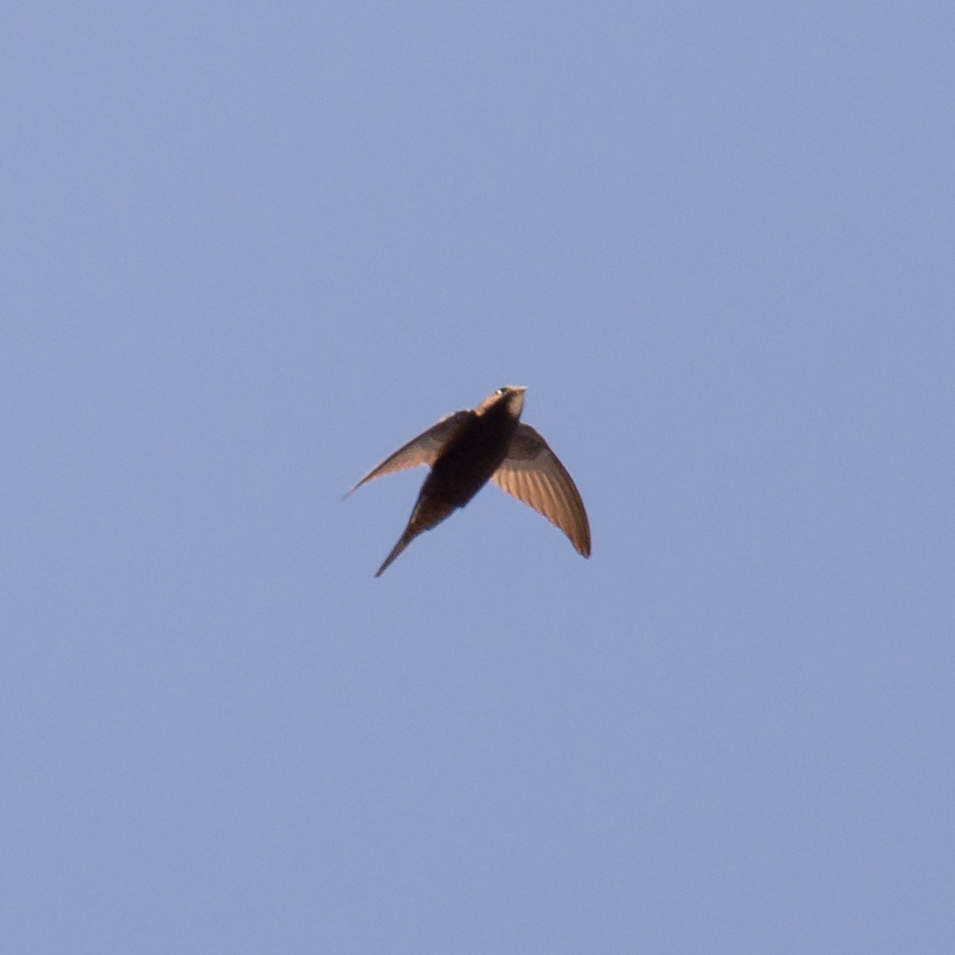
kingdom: Animalia
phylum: Chordata
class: Aves
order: Apodiformes
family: Apodidae
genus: Apus
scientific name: Apus apus
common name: Common swift
